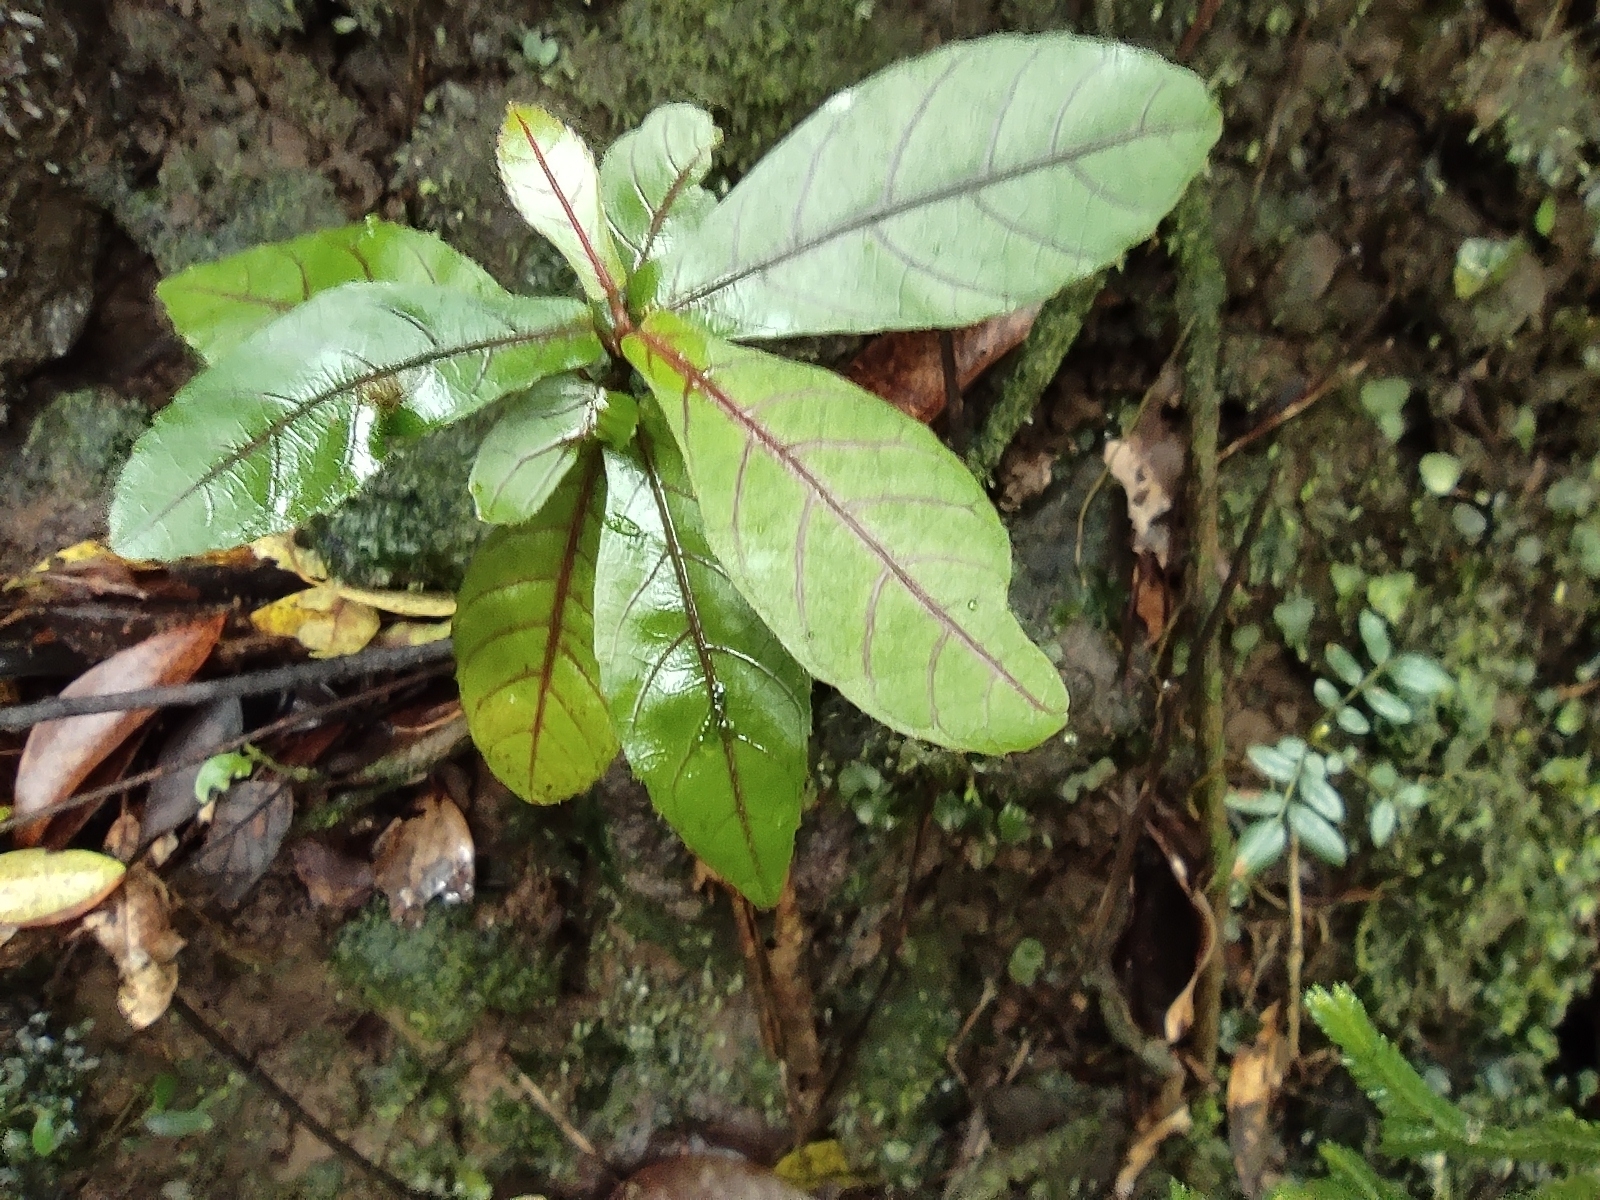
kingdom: Plantae
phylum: Tracheophyta
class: Magnoliopsida
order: Malpighiales
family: Euphorbiaceae
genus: Acalypha
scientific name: Acalypha integrifolia
